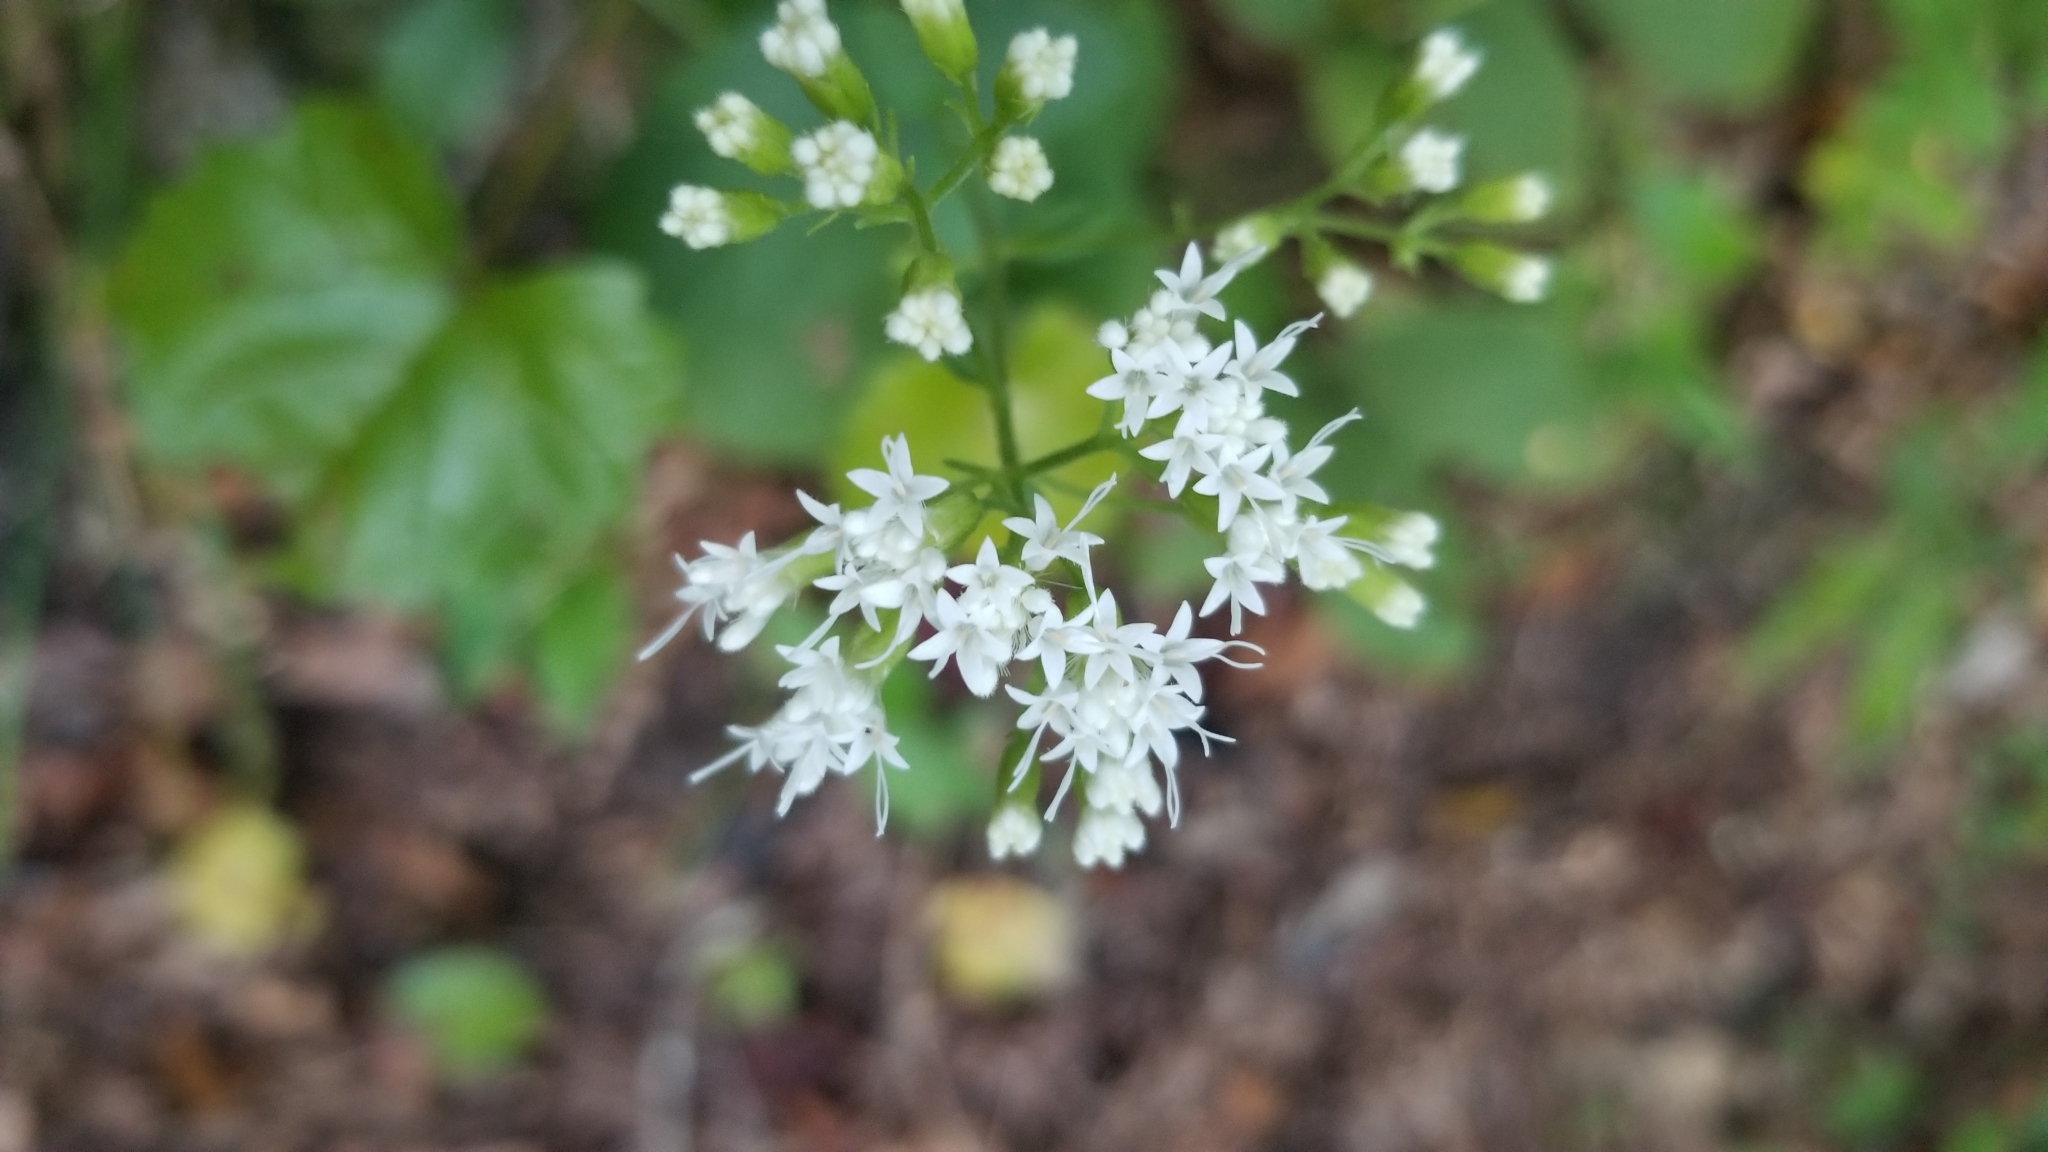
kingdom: Plantae
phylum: Tracheophyta
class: Magnoliopsida
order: Asterales
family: Asteraceae
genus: Ageratina
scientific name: Ageratina altissima
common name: White snakeroot
